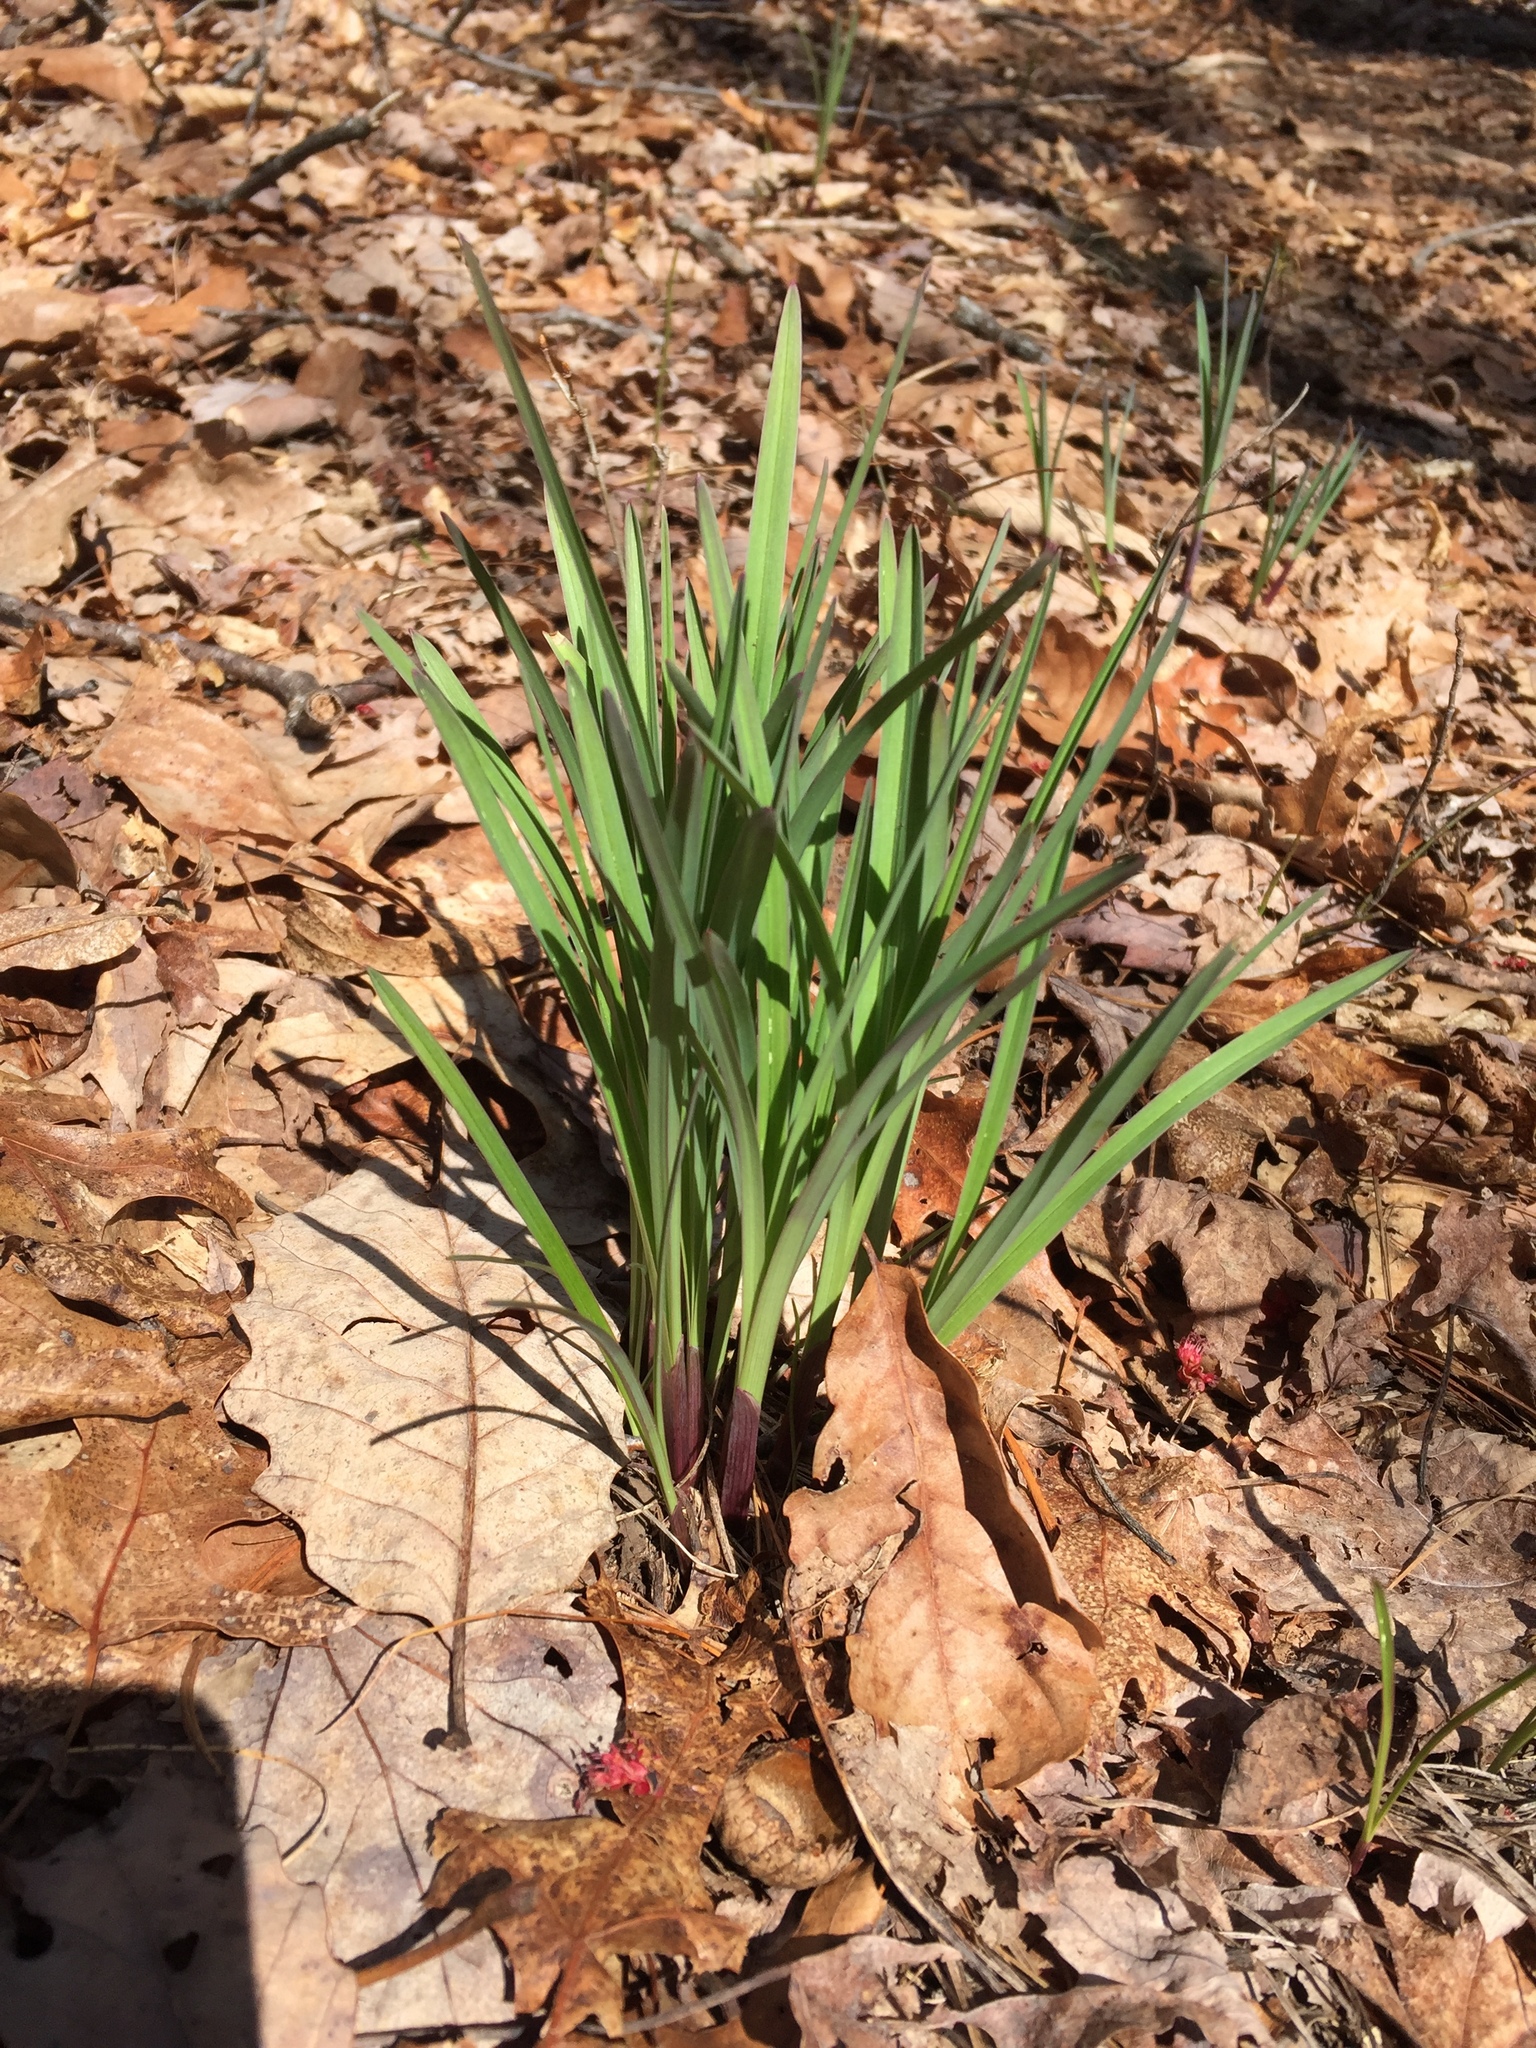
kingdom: Plantae
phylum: Tracheophyta
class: Liliopsida
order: Asparagales
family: Amaryllidaceae
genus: Narcissus
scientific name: Narcissus pseudonarcissus
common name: Daffodil
